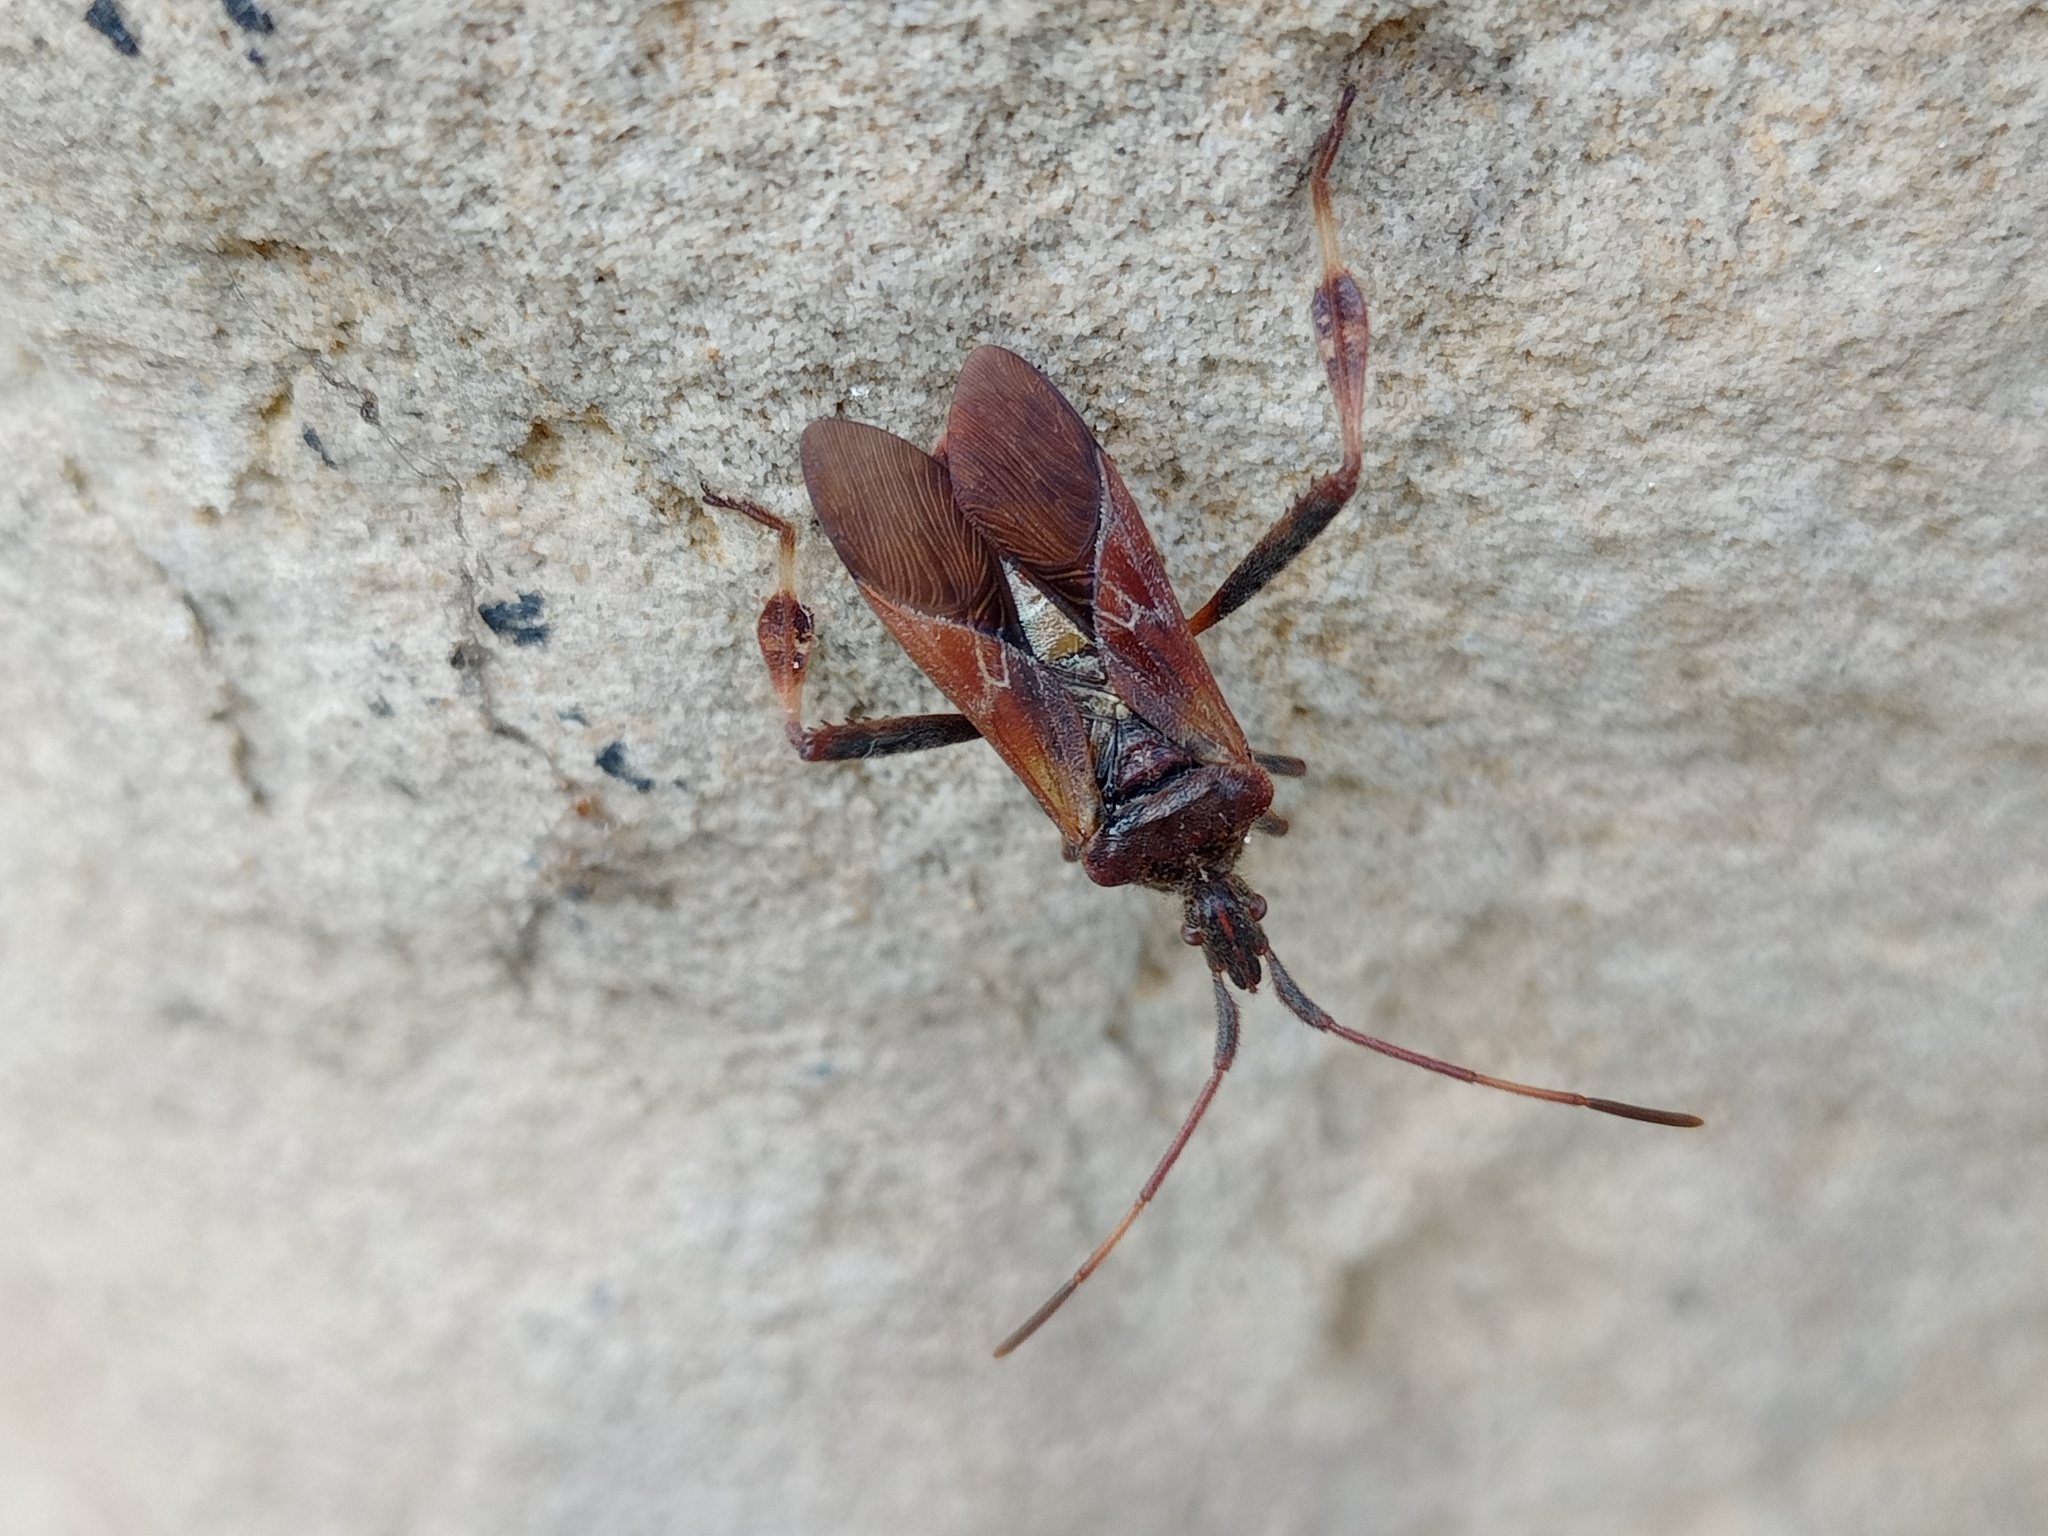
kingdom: Animalia
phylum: Arthropoda
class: Insecta
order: Hemiptera
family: Coreidae
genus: Leptoglossus
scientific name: Leptoglossus occidentalis
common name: Western conifer-seed bug
